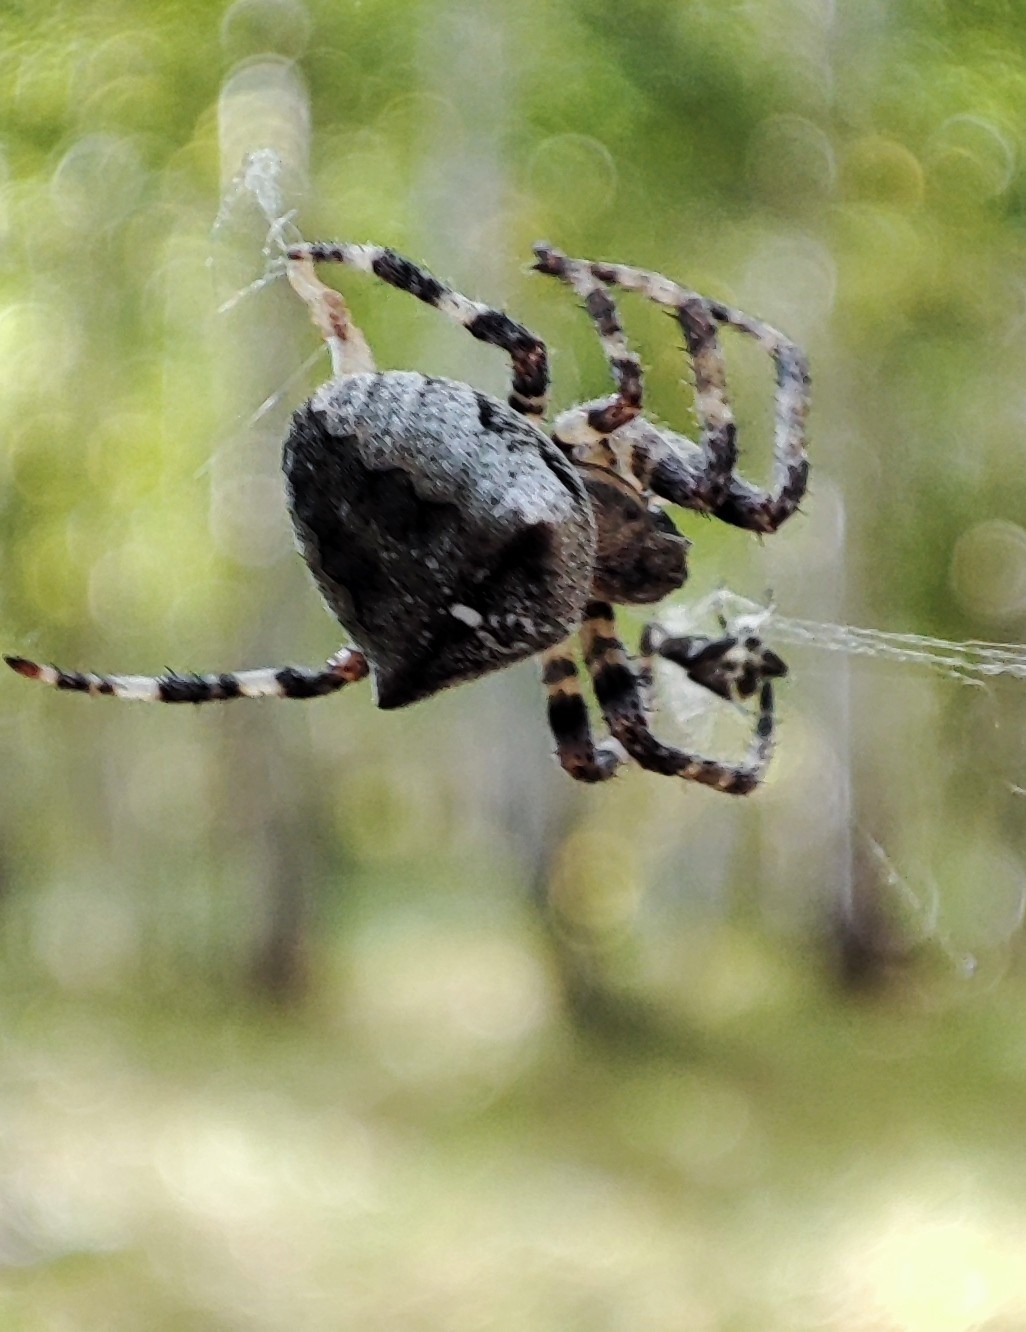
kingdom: Animalia
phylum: Arthropoda
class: Arachnida
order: Araneae
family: Araneidae
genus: Araneus
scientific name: Araneus angulatus
